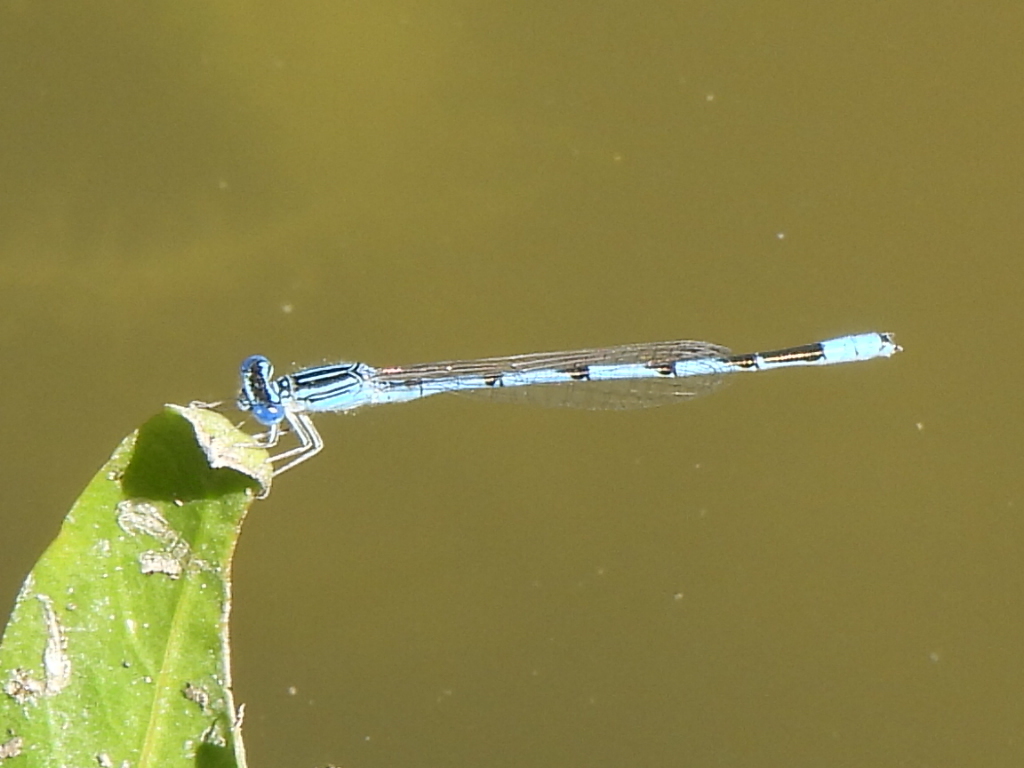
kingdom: Animalia
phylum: Arthropoda
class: Insecta
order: Odonata
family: Coenagrionidae
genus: Enallagma
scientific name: Enallagma basidens
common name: Double-striped bluet
